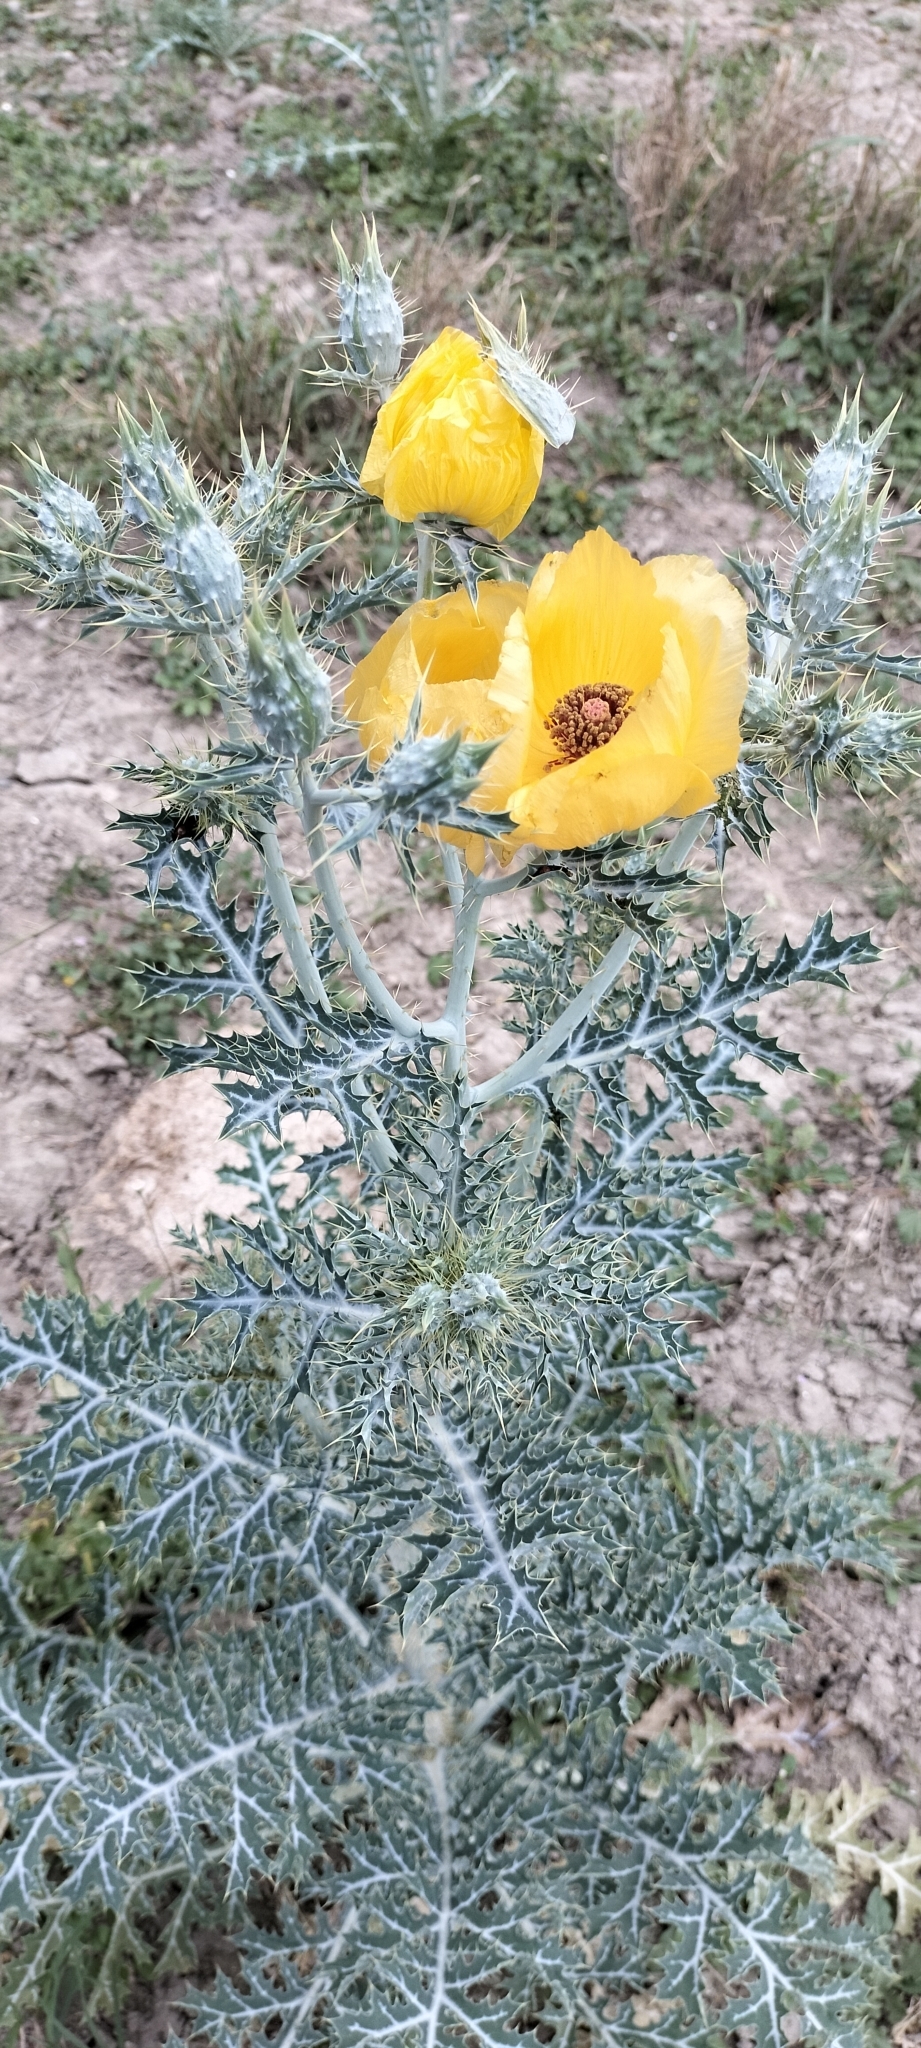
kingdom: Plantae
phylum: Tracheophyta
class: Magnoliopsida
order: Ranunculales
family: Papaveraceae
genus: Argemone
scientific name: Argemone aenea
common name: Golden prickly-poppy
